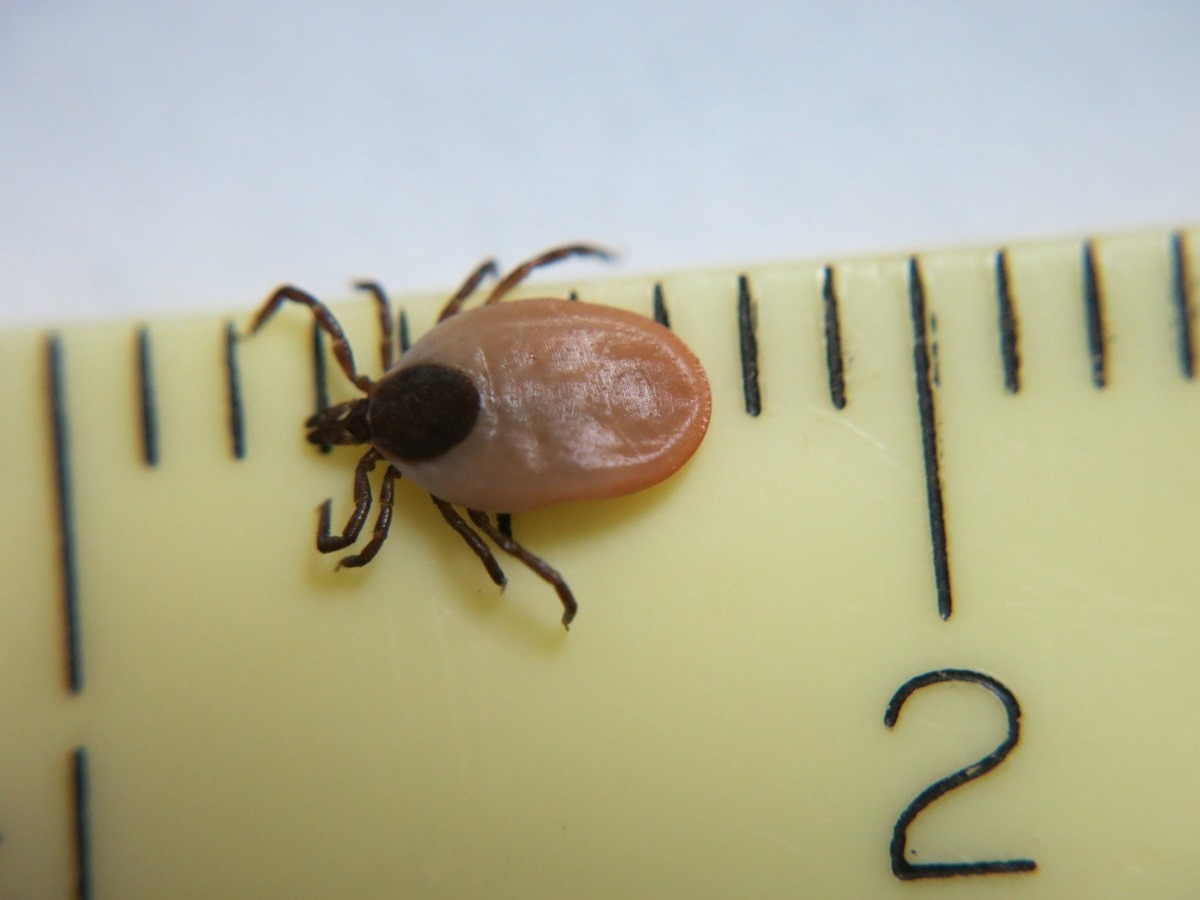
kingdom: Animalia
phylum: Arthropoda
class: Arachnida
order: Ixodida
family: Ixodidae
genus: Ixodes
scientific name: Ixodes scapularis
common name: Black legged tick
